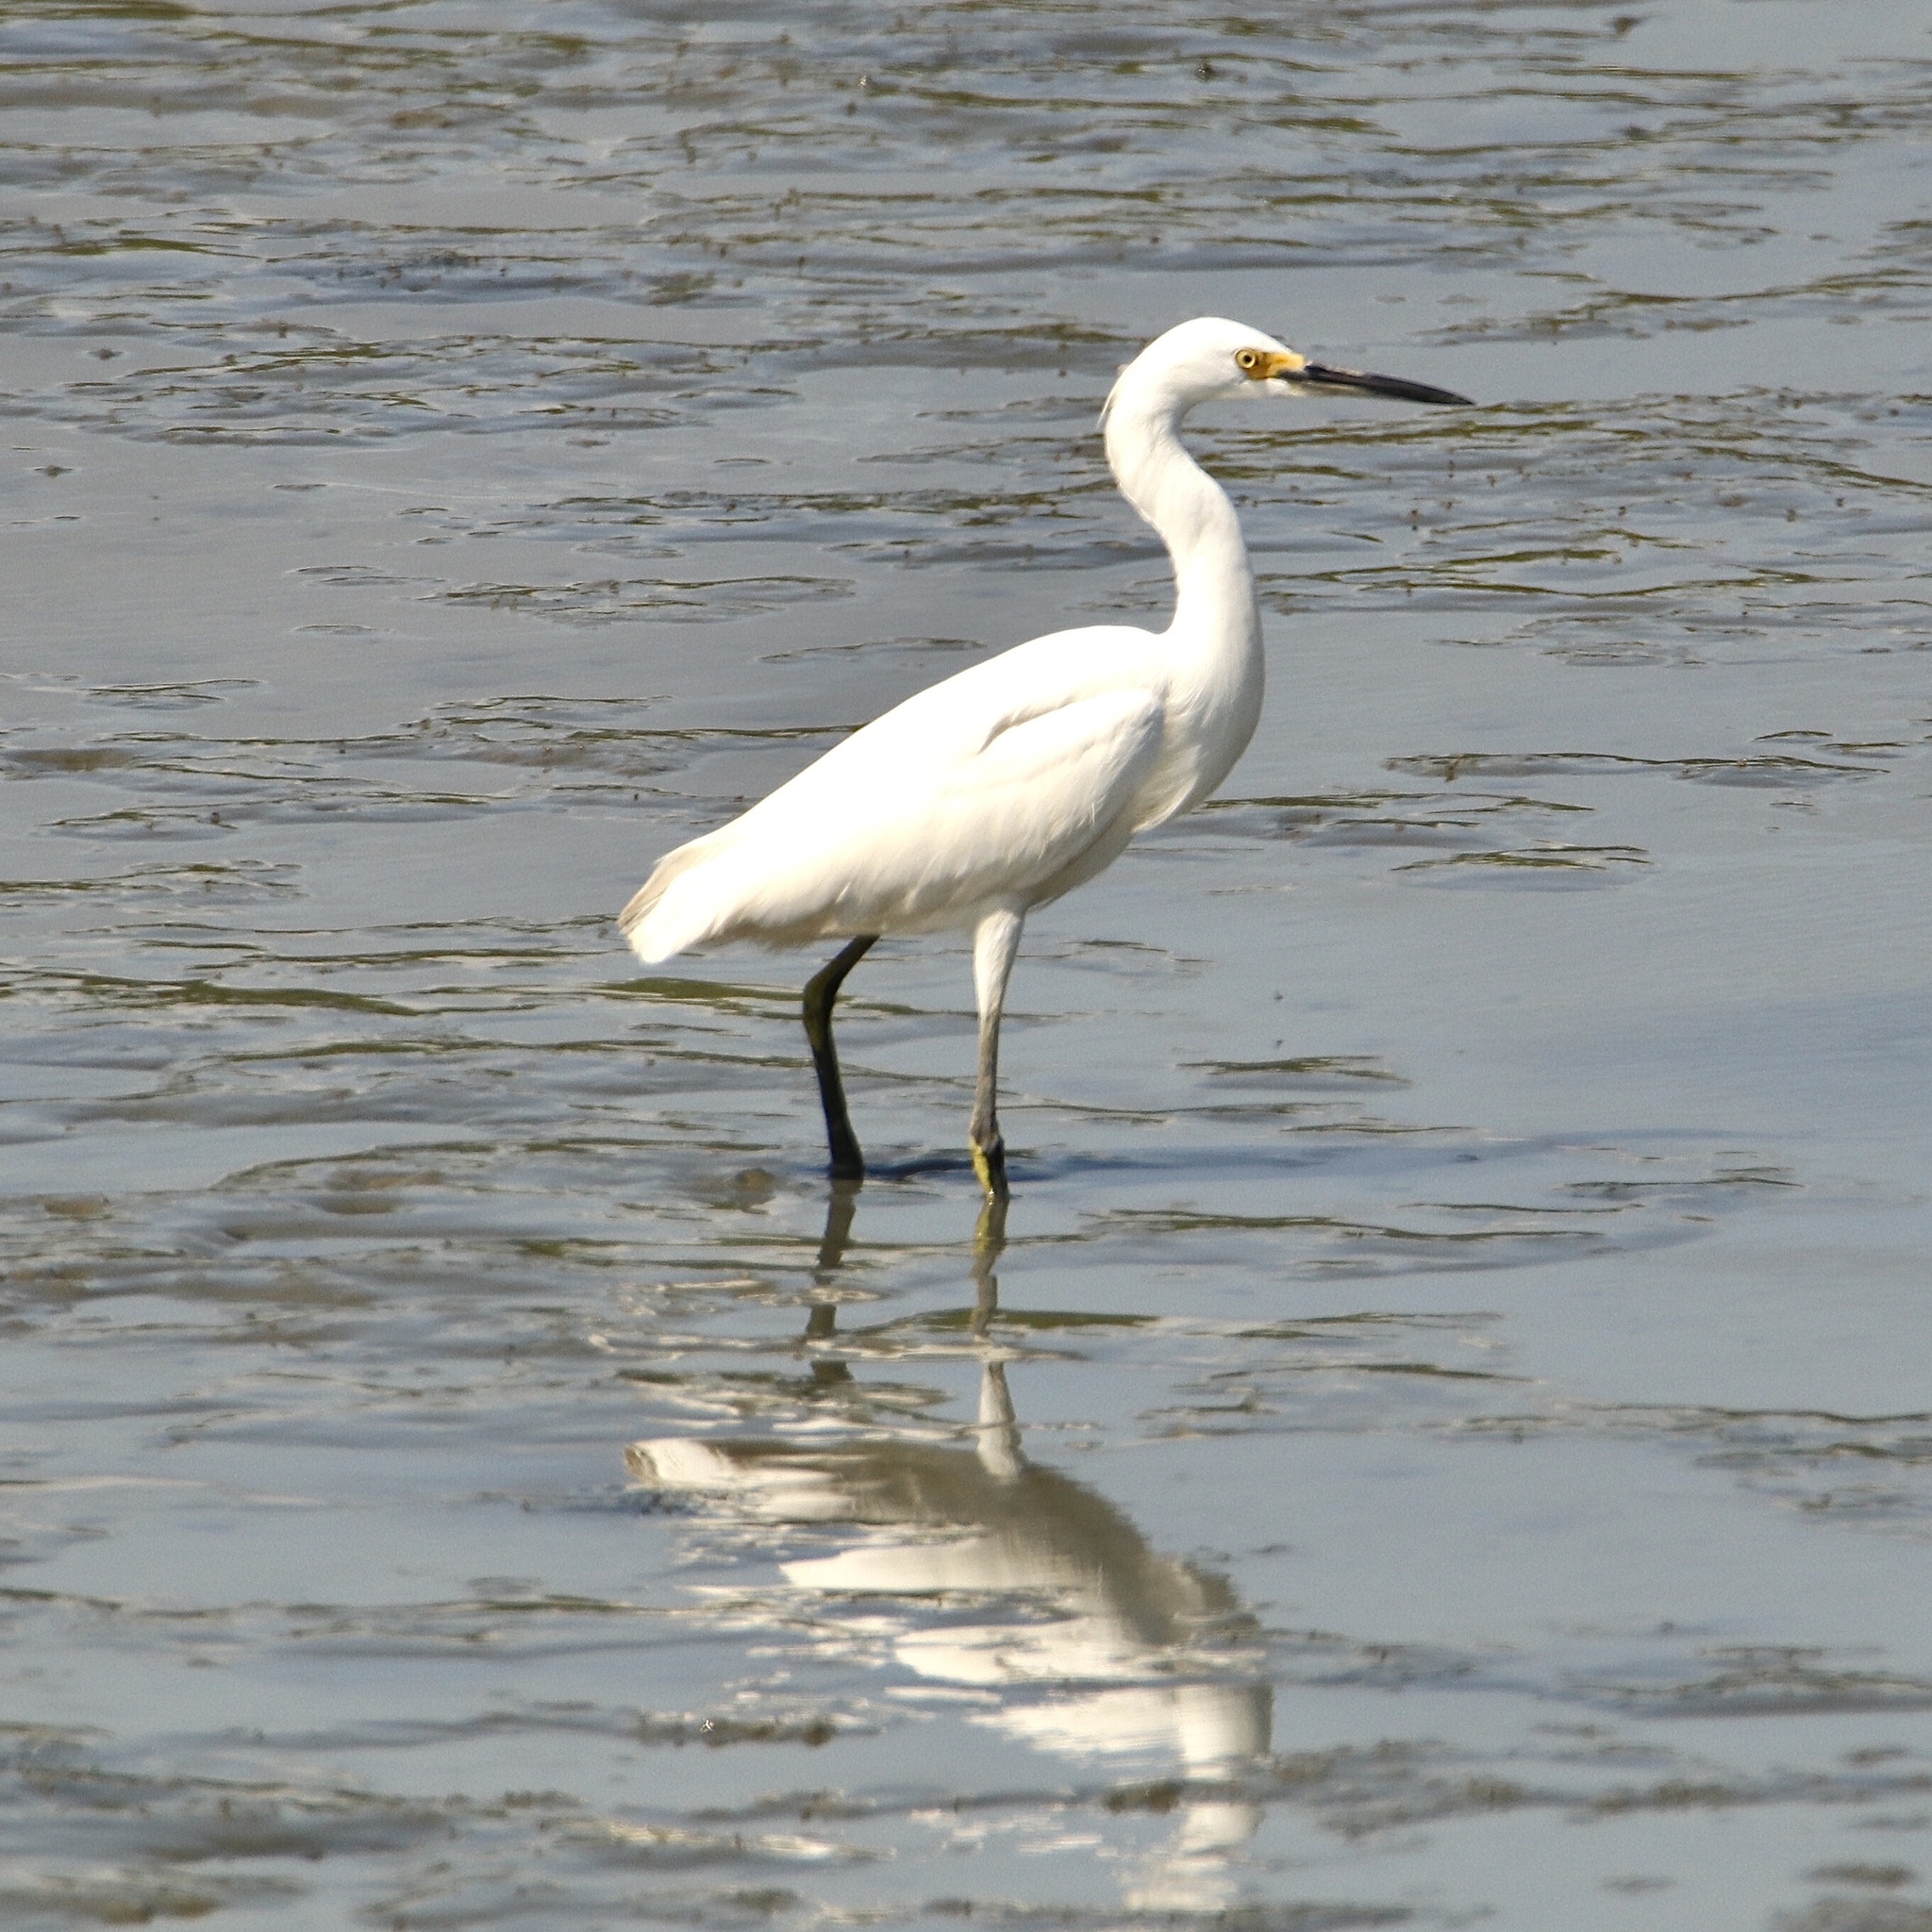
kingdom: Animalia
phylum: Chordata
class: Aves
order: Pelecaniformes
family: Ardeidae
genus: Egretta
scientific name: Egretta thula
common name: Snowy egret
